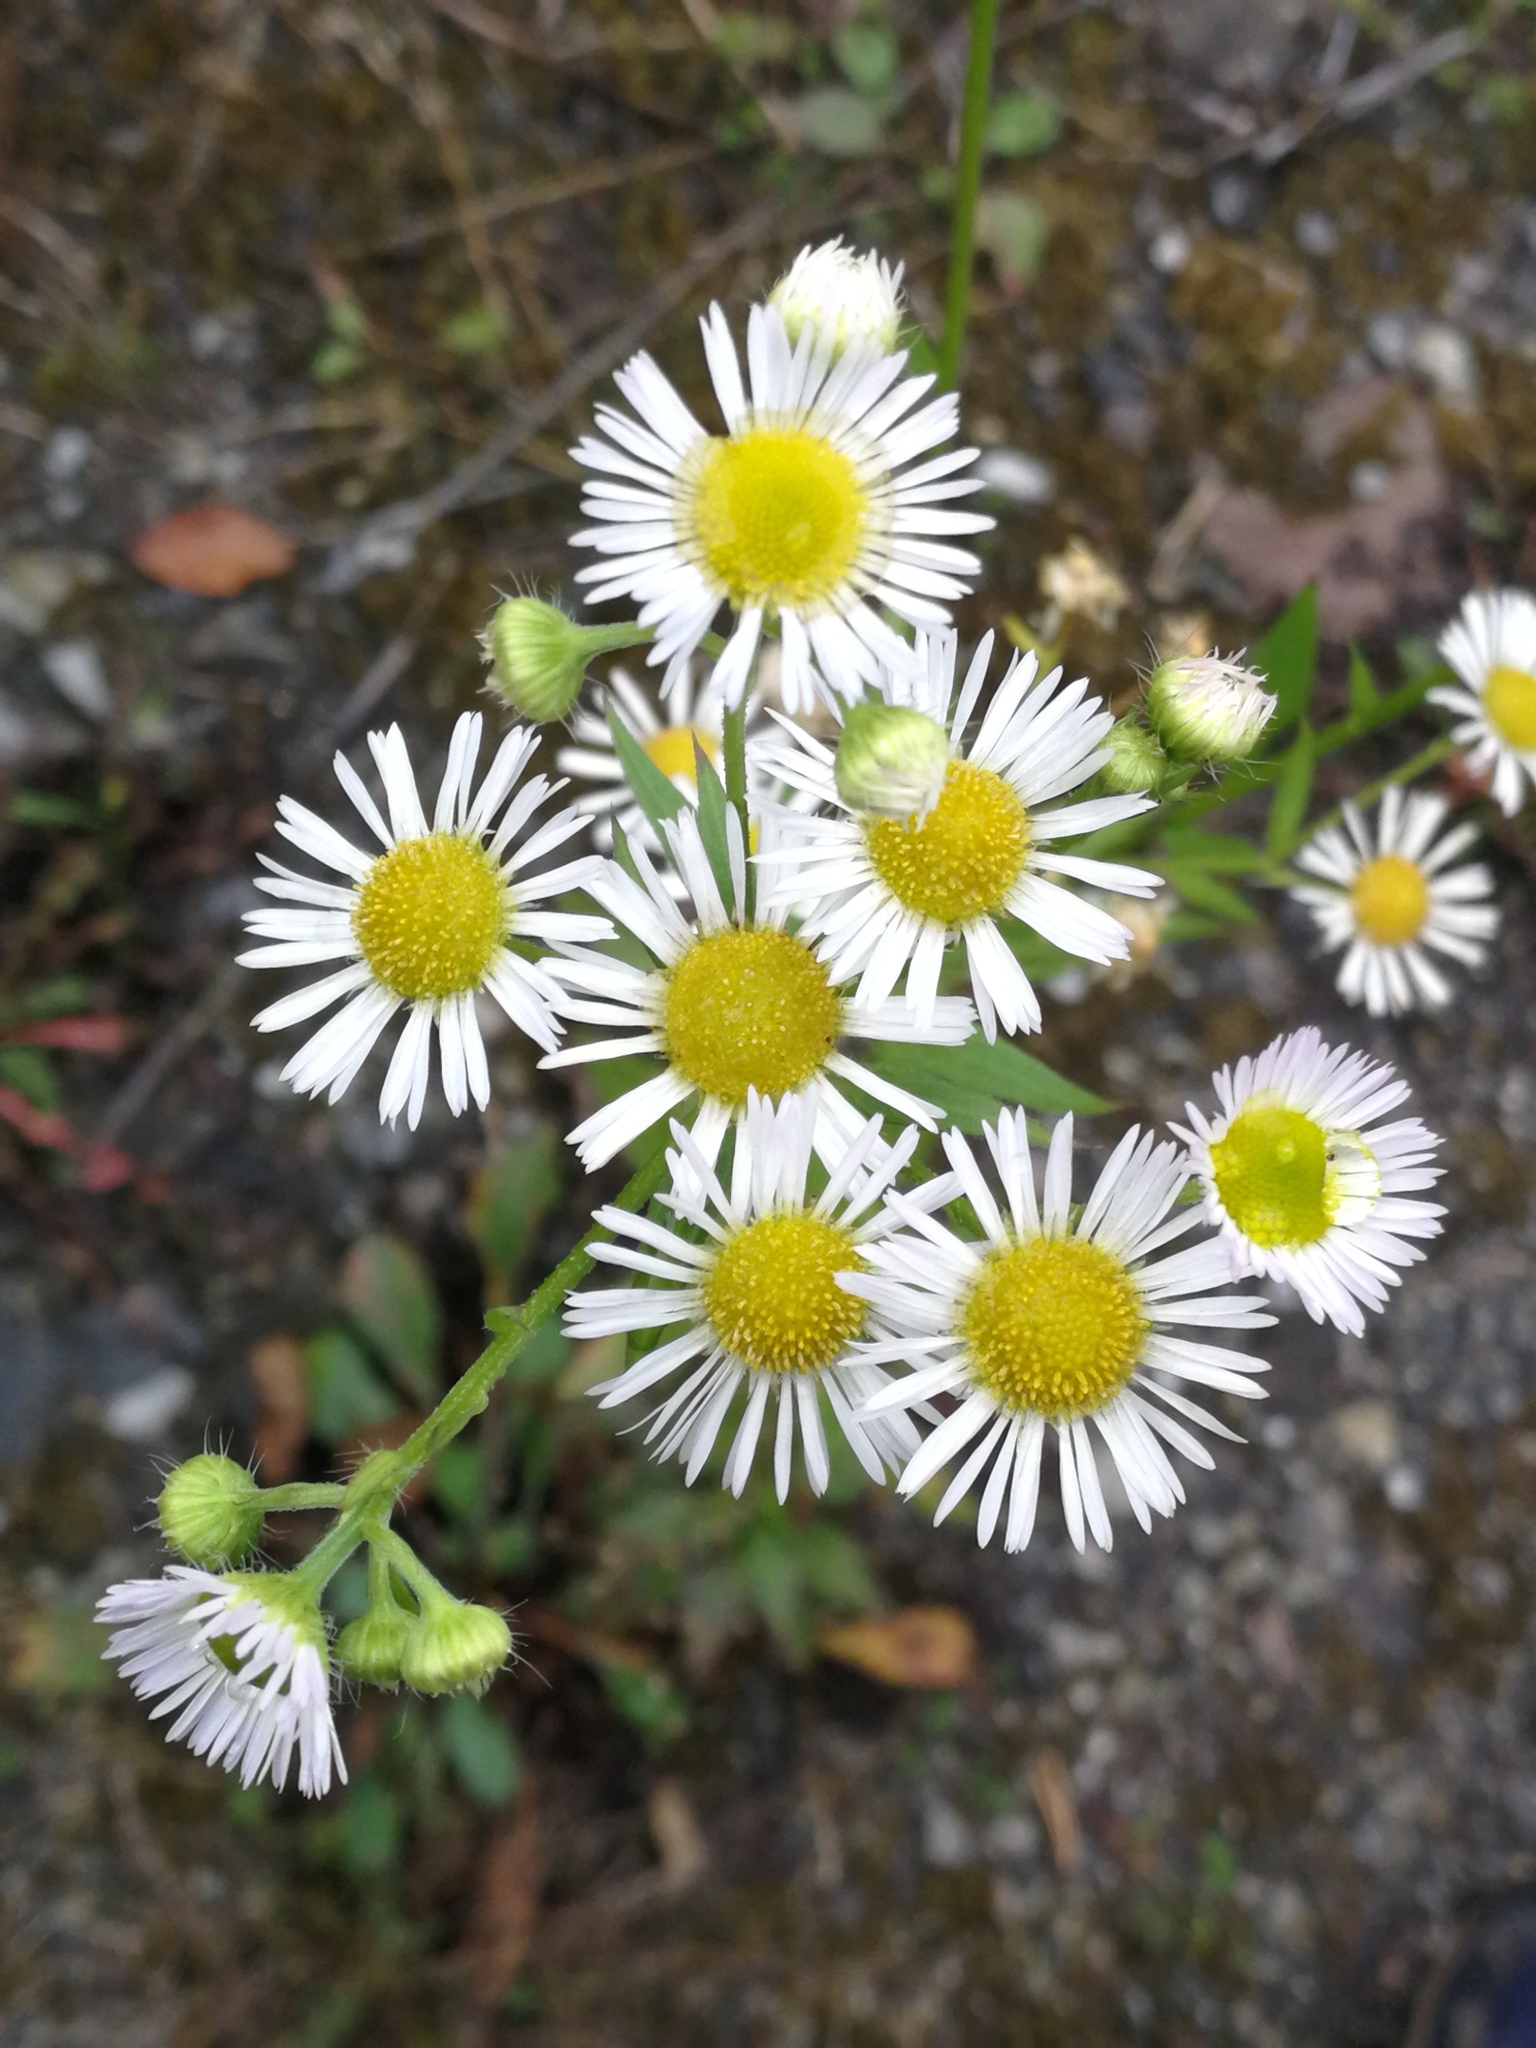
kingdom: Plantae
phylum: Tracheophyta
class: Magnoliopsida
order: Asterales
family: Asteraceae
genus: Erigeron
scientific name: Erigeron annuus
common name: Tall fleabane
